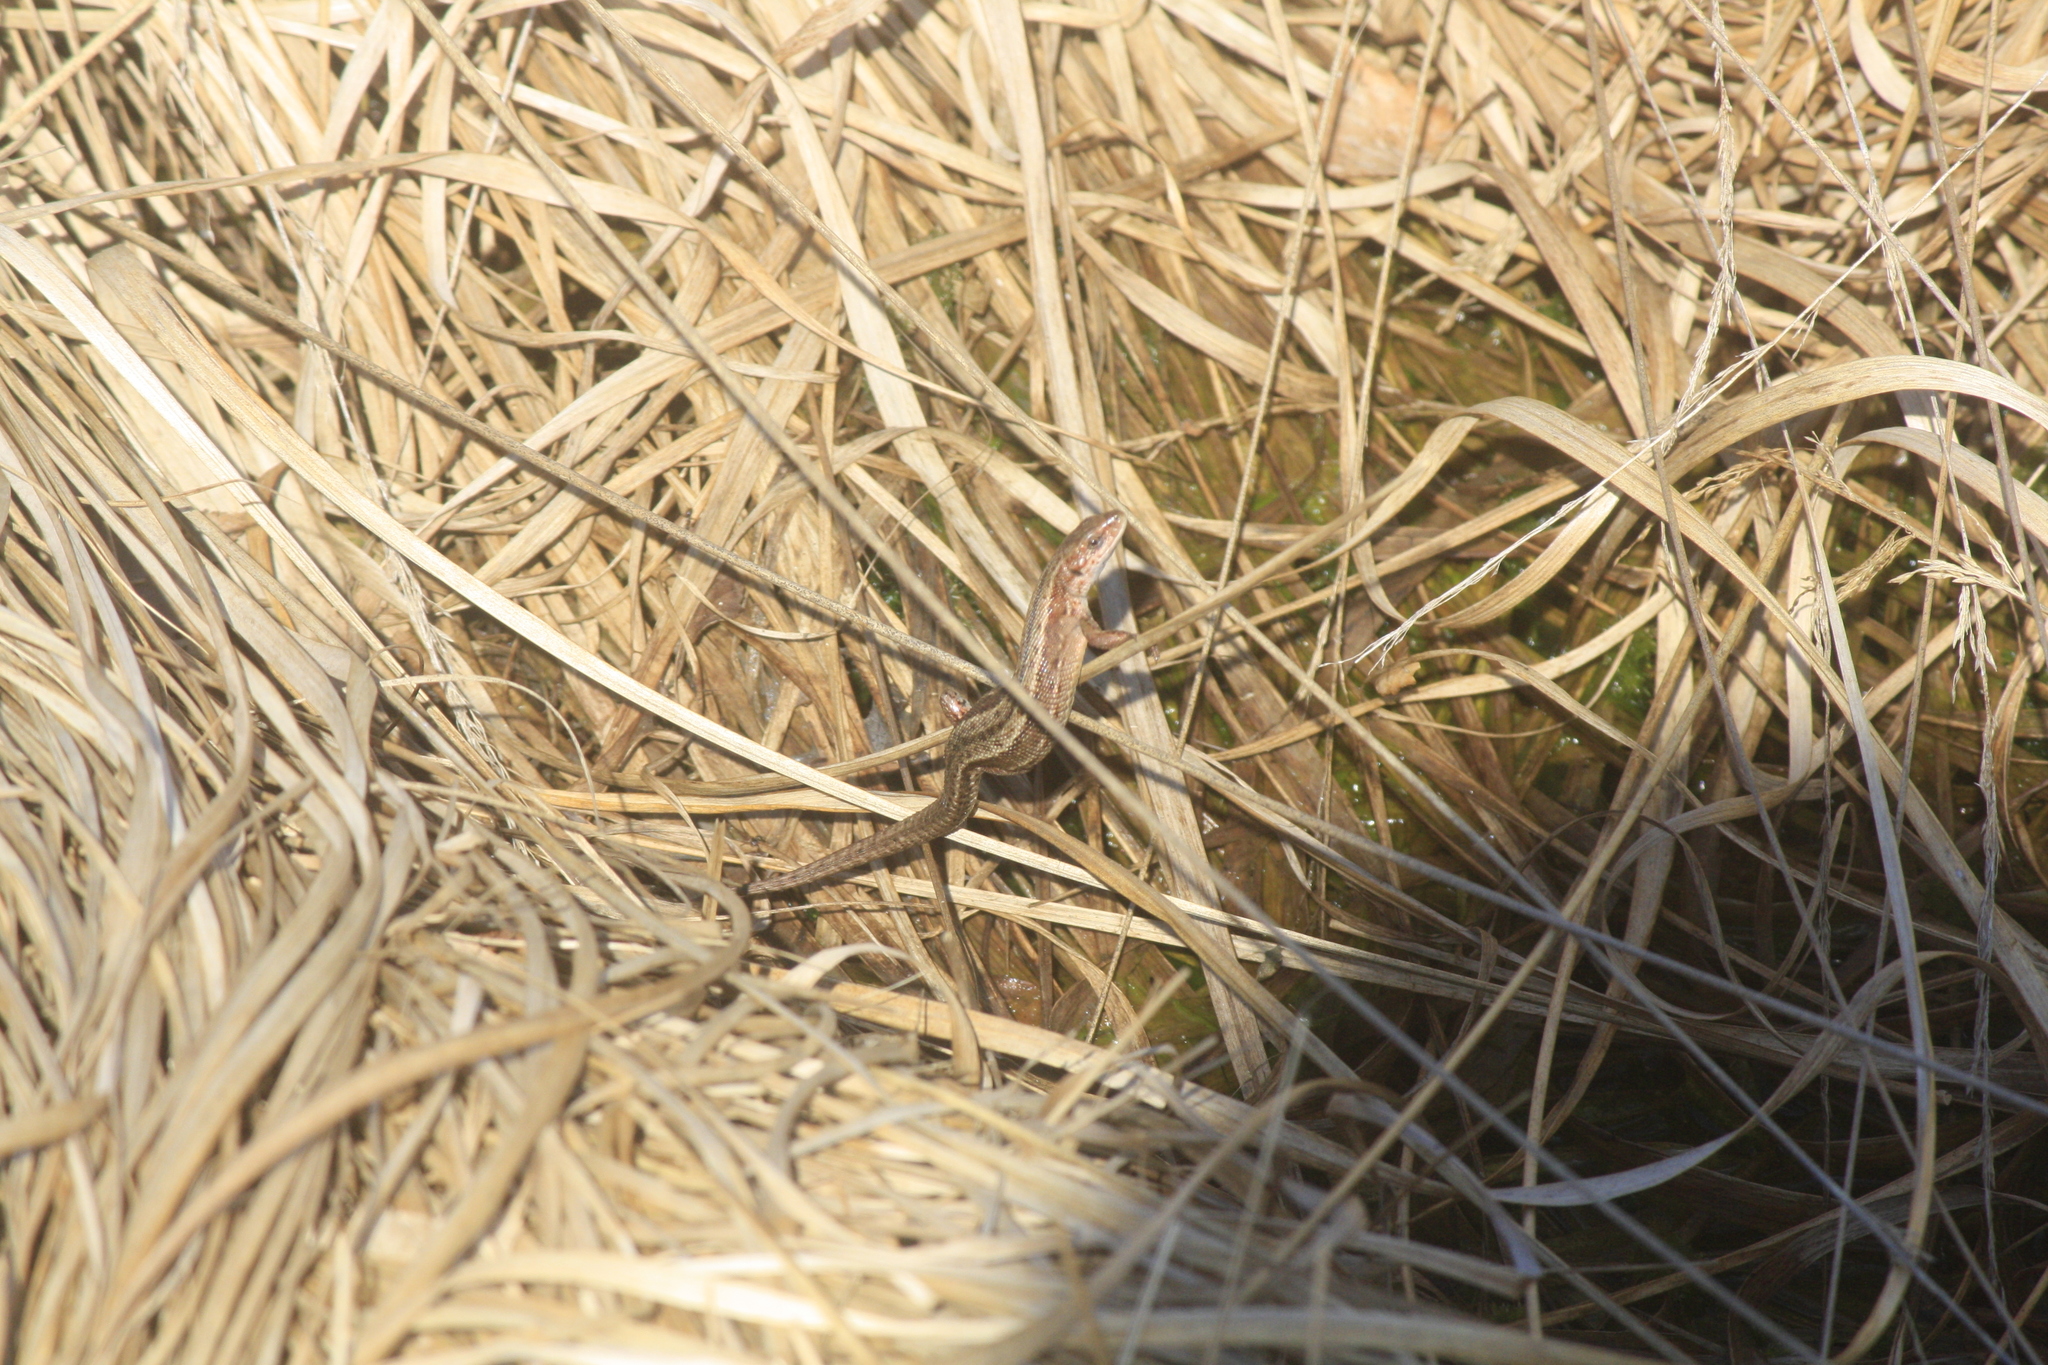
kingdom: Animalia
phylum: Chordata
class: Squamata
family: Lacertidae
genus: Zootoca
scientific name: Zootoca vivipara
